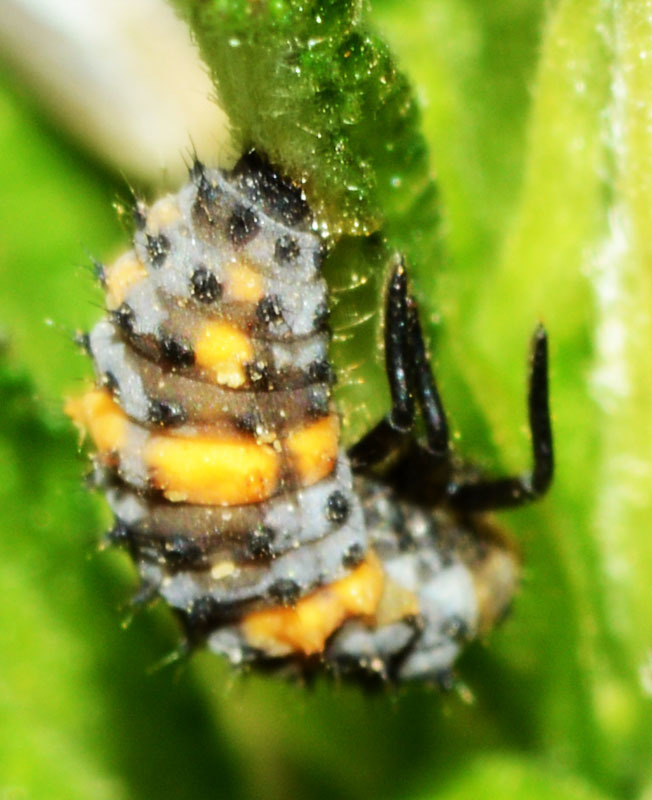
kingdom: Animalia
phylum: Arthropoda
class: Insecta
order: Coleoptera
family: Coccinellidae
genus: Hippodamia
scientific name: Hippodamia convergens
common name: Convergent lady beetle
